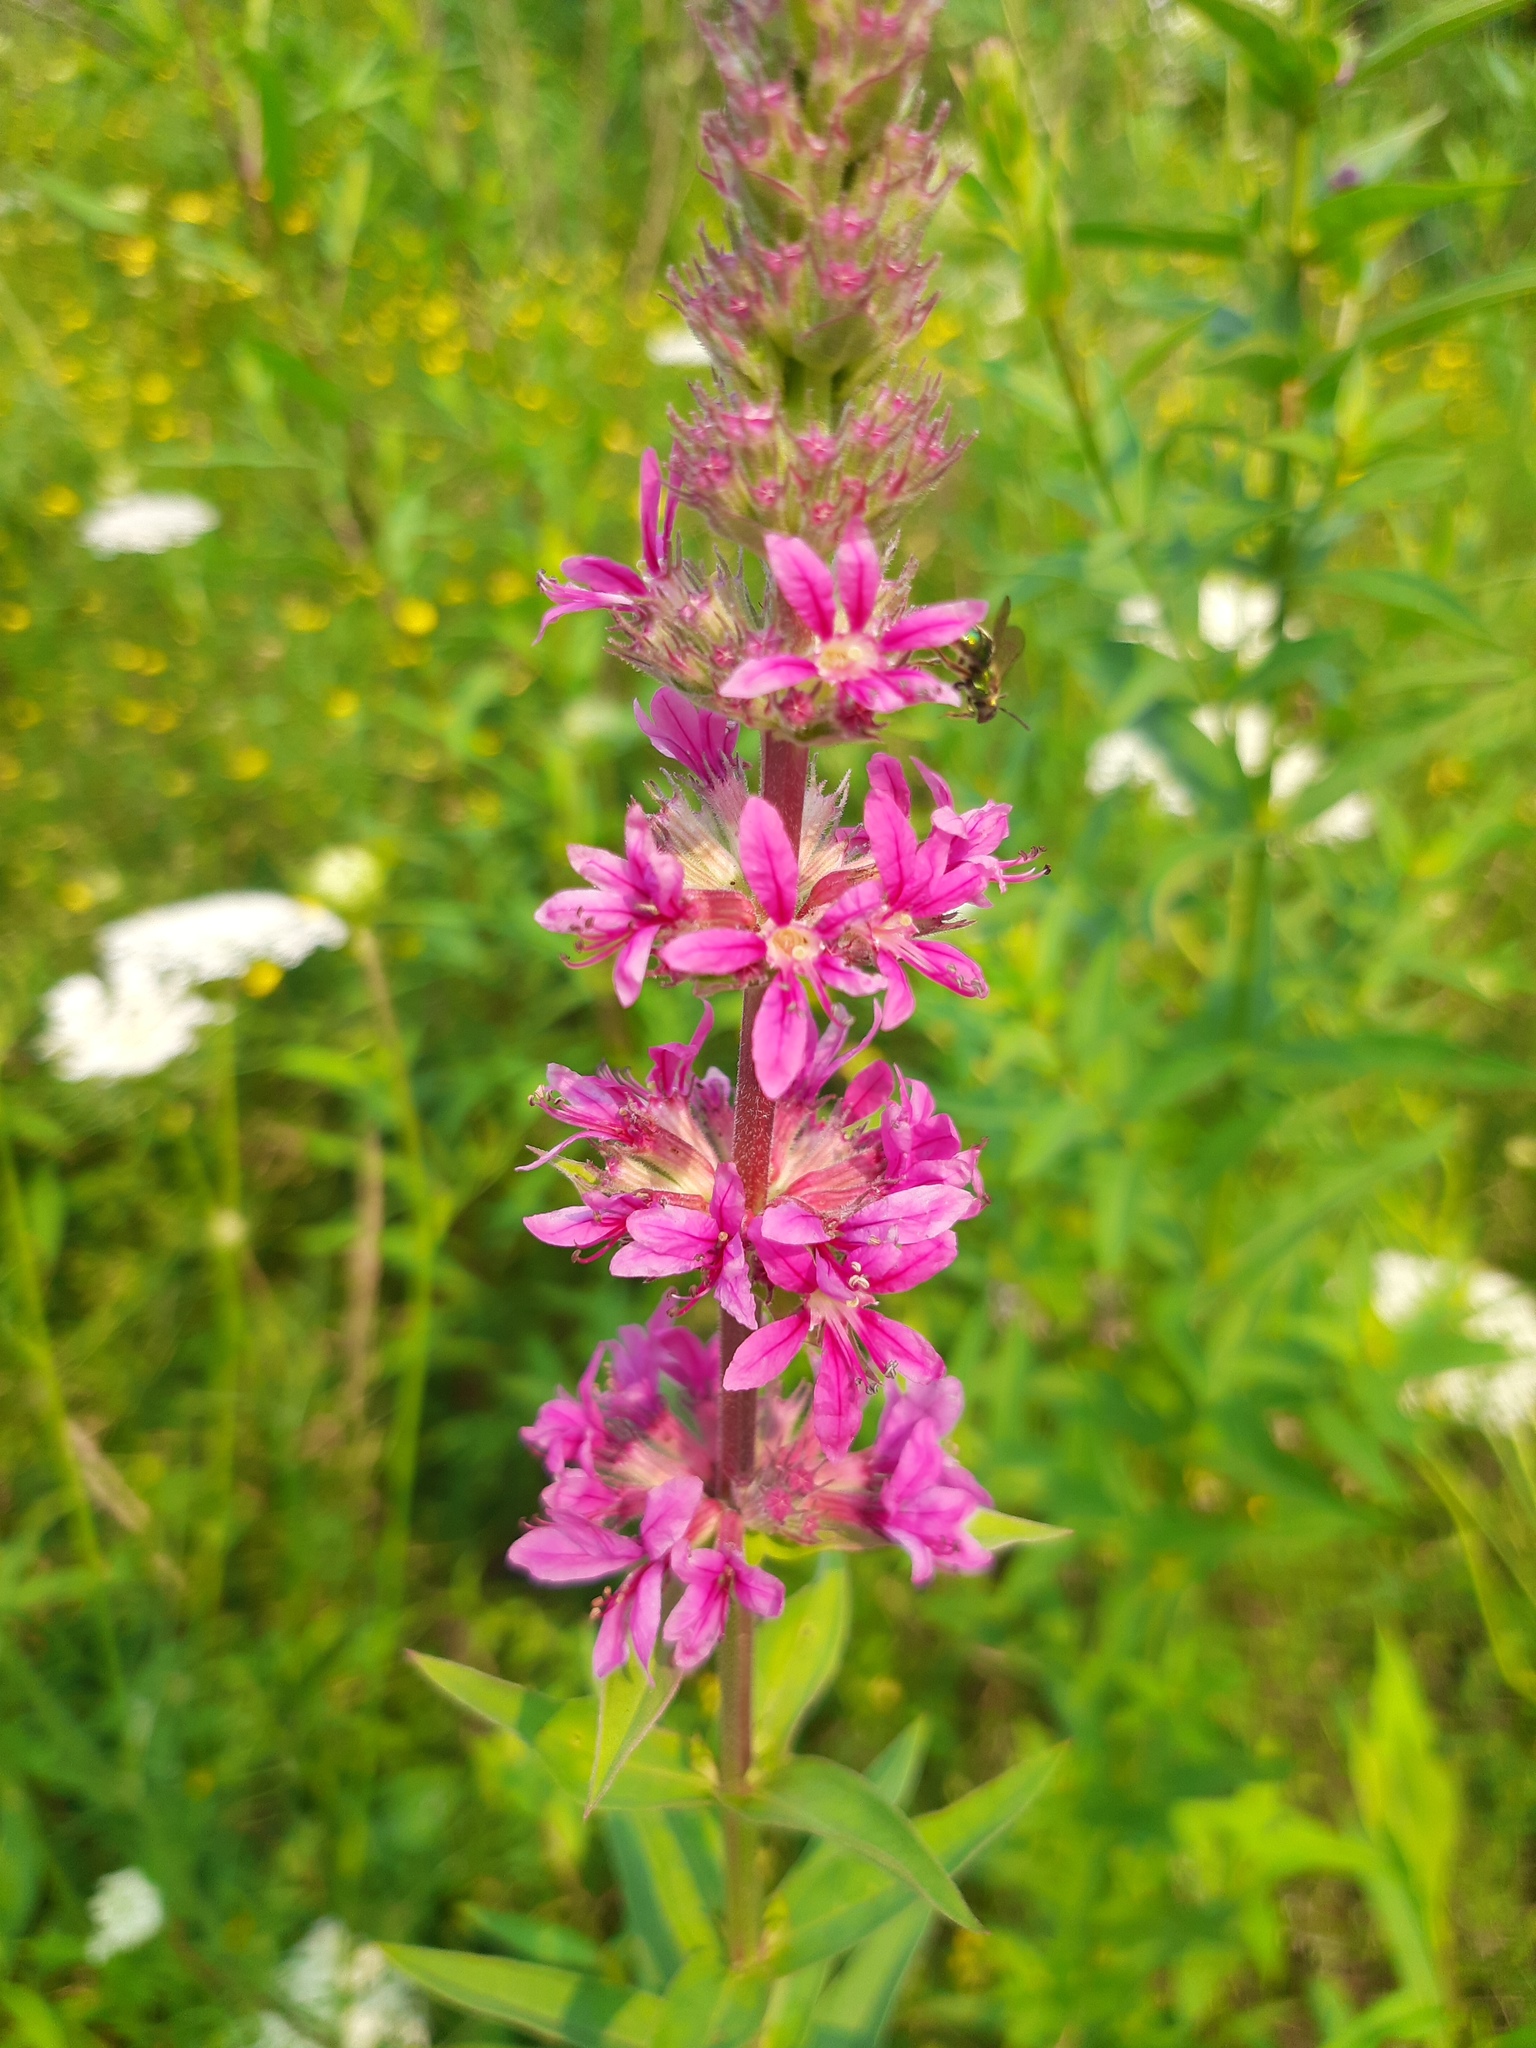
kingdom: Plantae
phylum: Tracheophyta
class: Magnoliopsida
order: Myrtales
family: Lythraceae
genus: Lythrum
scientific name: Lythrum salicaria
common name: Purple loosestrife
